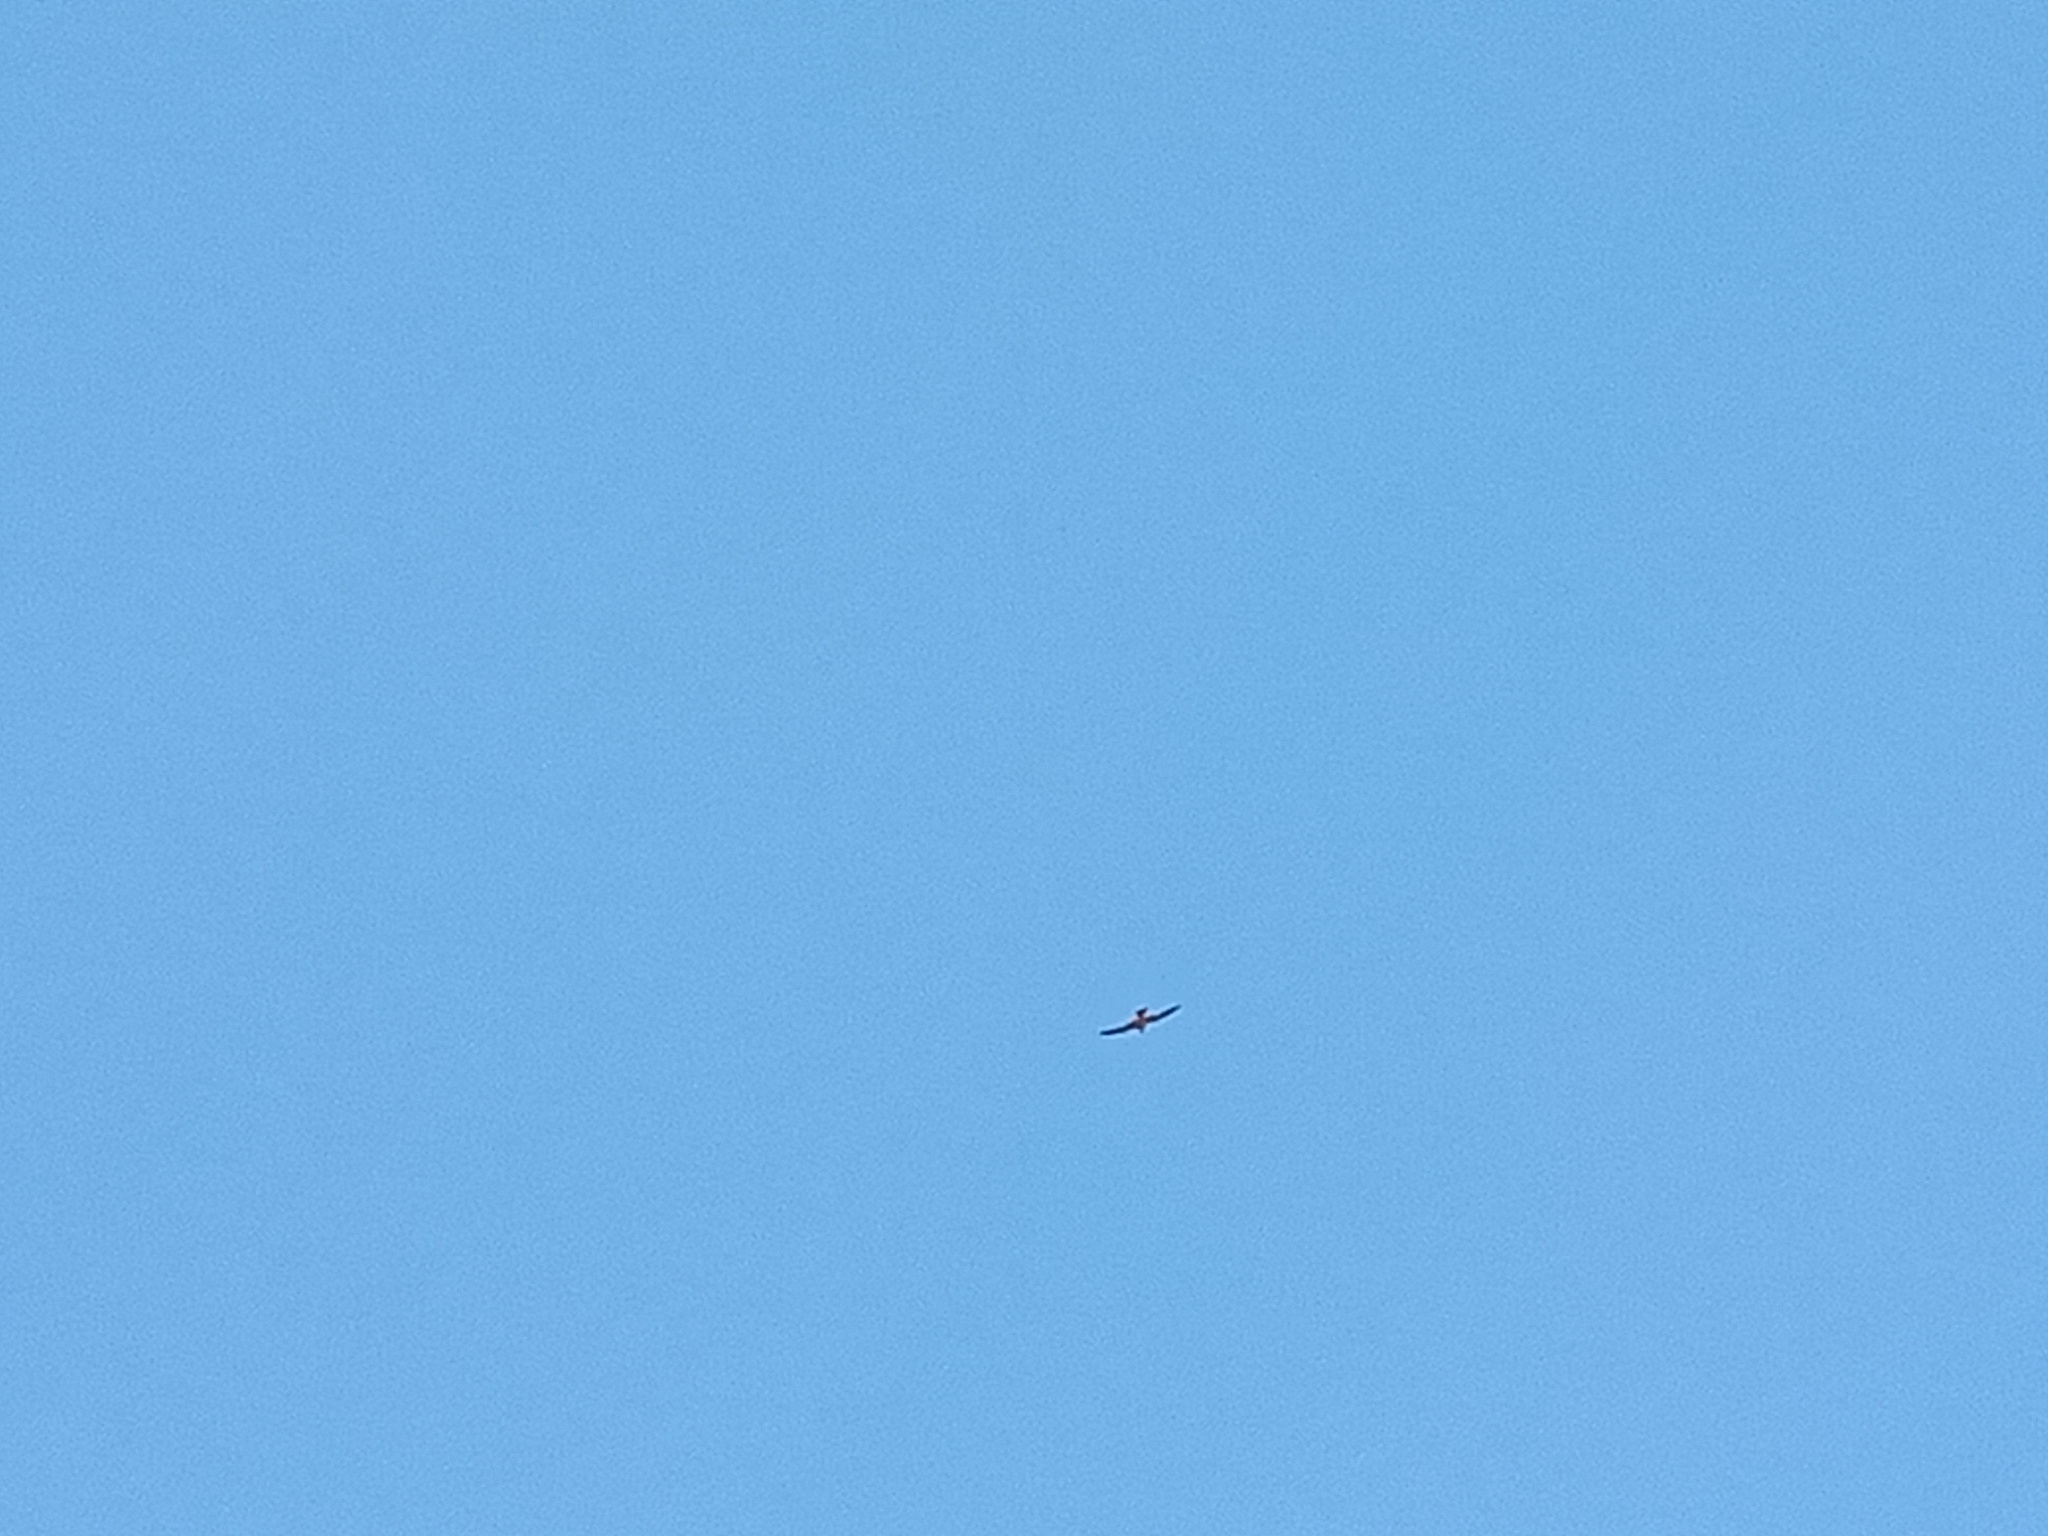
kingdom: Animalia
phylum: Chordata
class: Aves
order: Falconiformes
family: Falconidae
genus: Falco
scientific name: Falco longipennis
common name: Australian hobby
